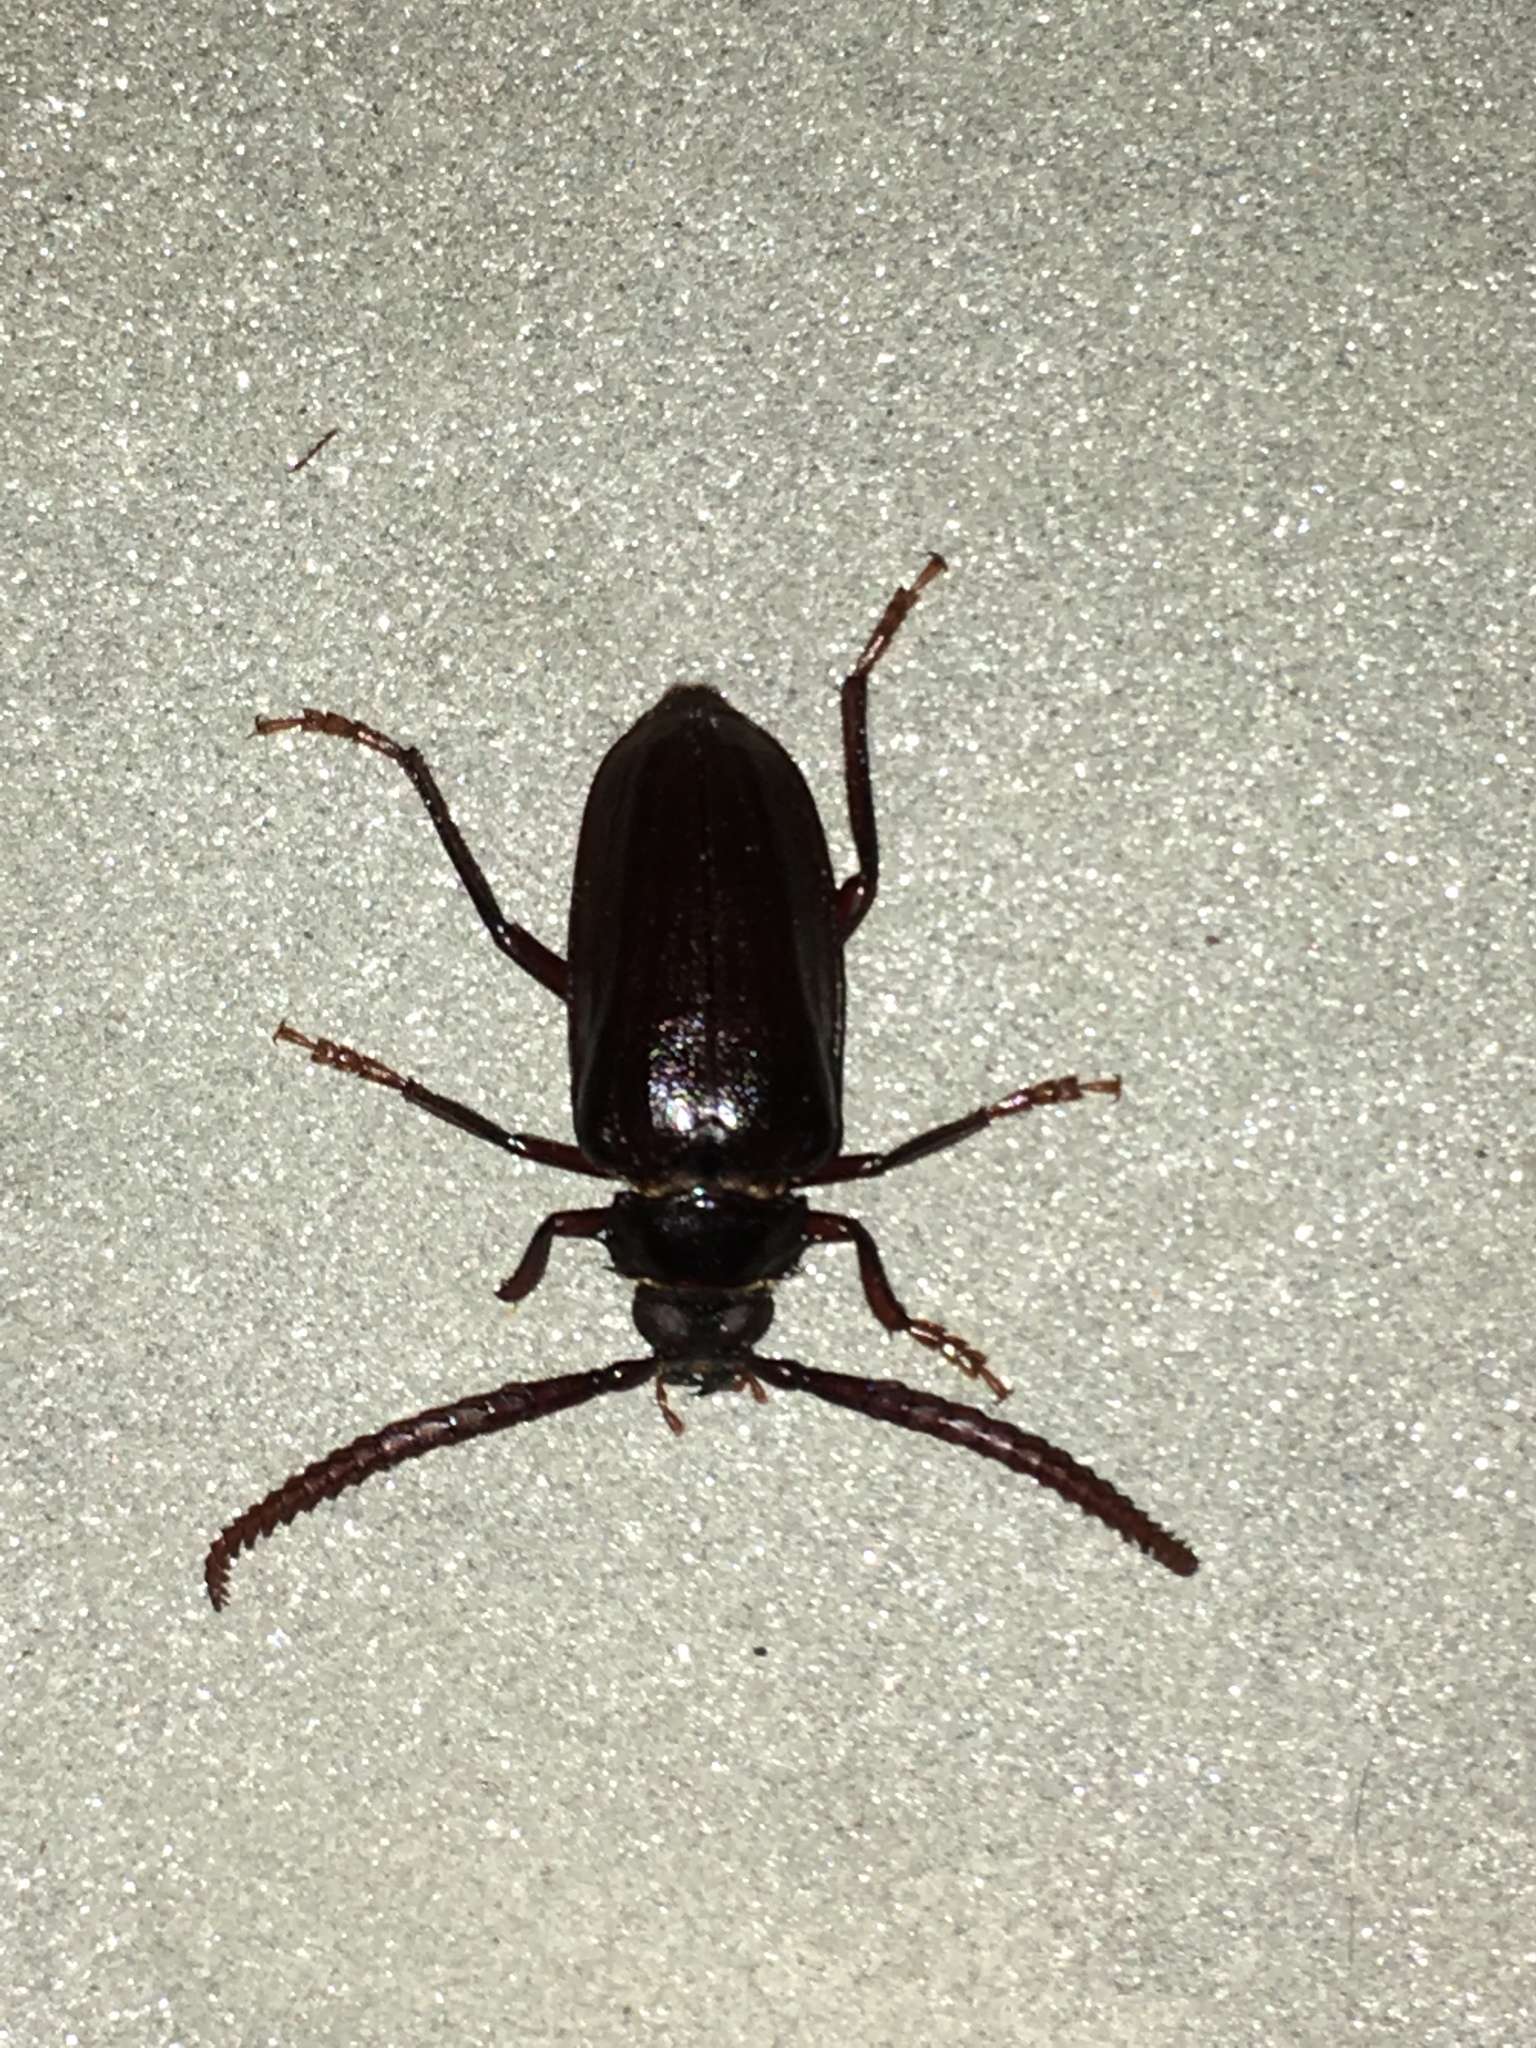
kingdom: Animalia
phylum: Arthropoda
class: Insecta
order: Coleoptera
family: Cerambycidae
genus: Prionus
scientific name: Prionus imbricornis
